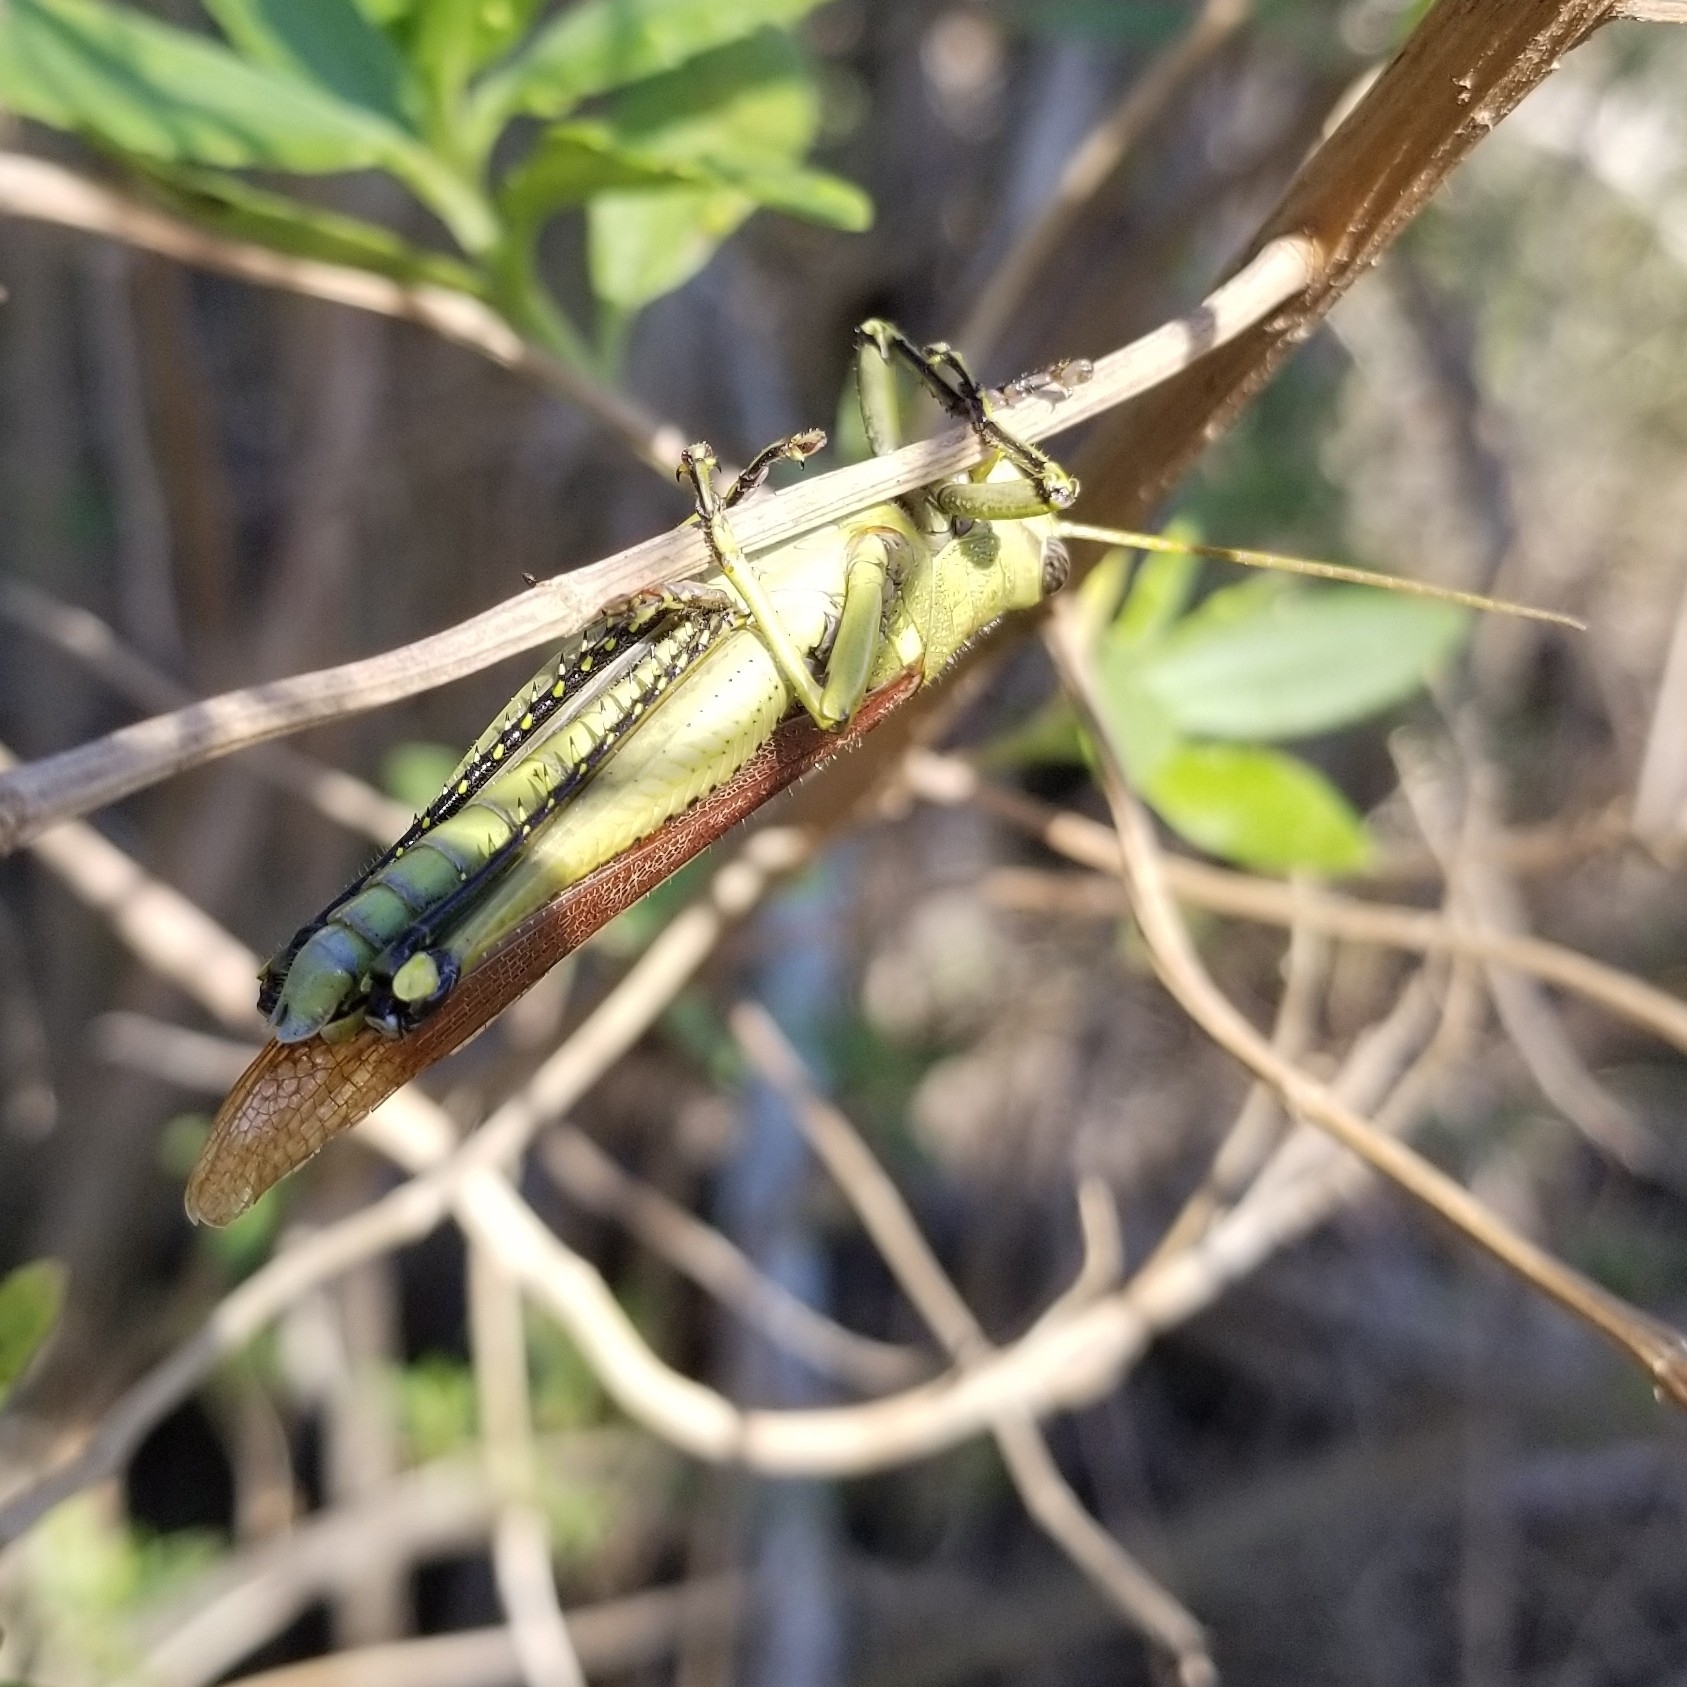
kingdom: Animalia
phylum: Arthropoda
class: Insecta
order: Orthoptera
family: Acrididae
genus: Schistocerca
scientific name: Schistocerca obscura
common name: Obscure bird grasshopper
